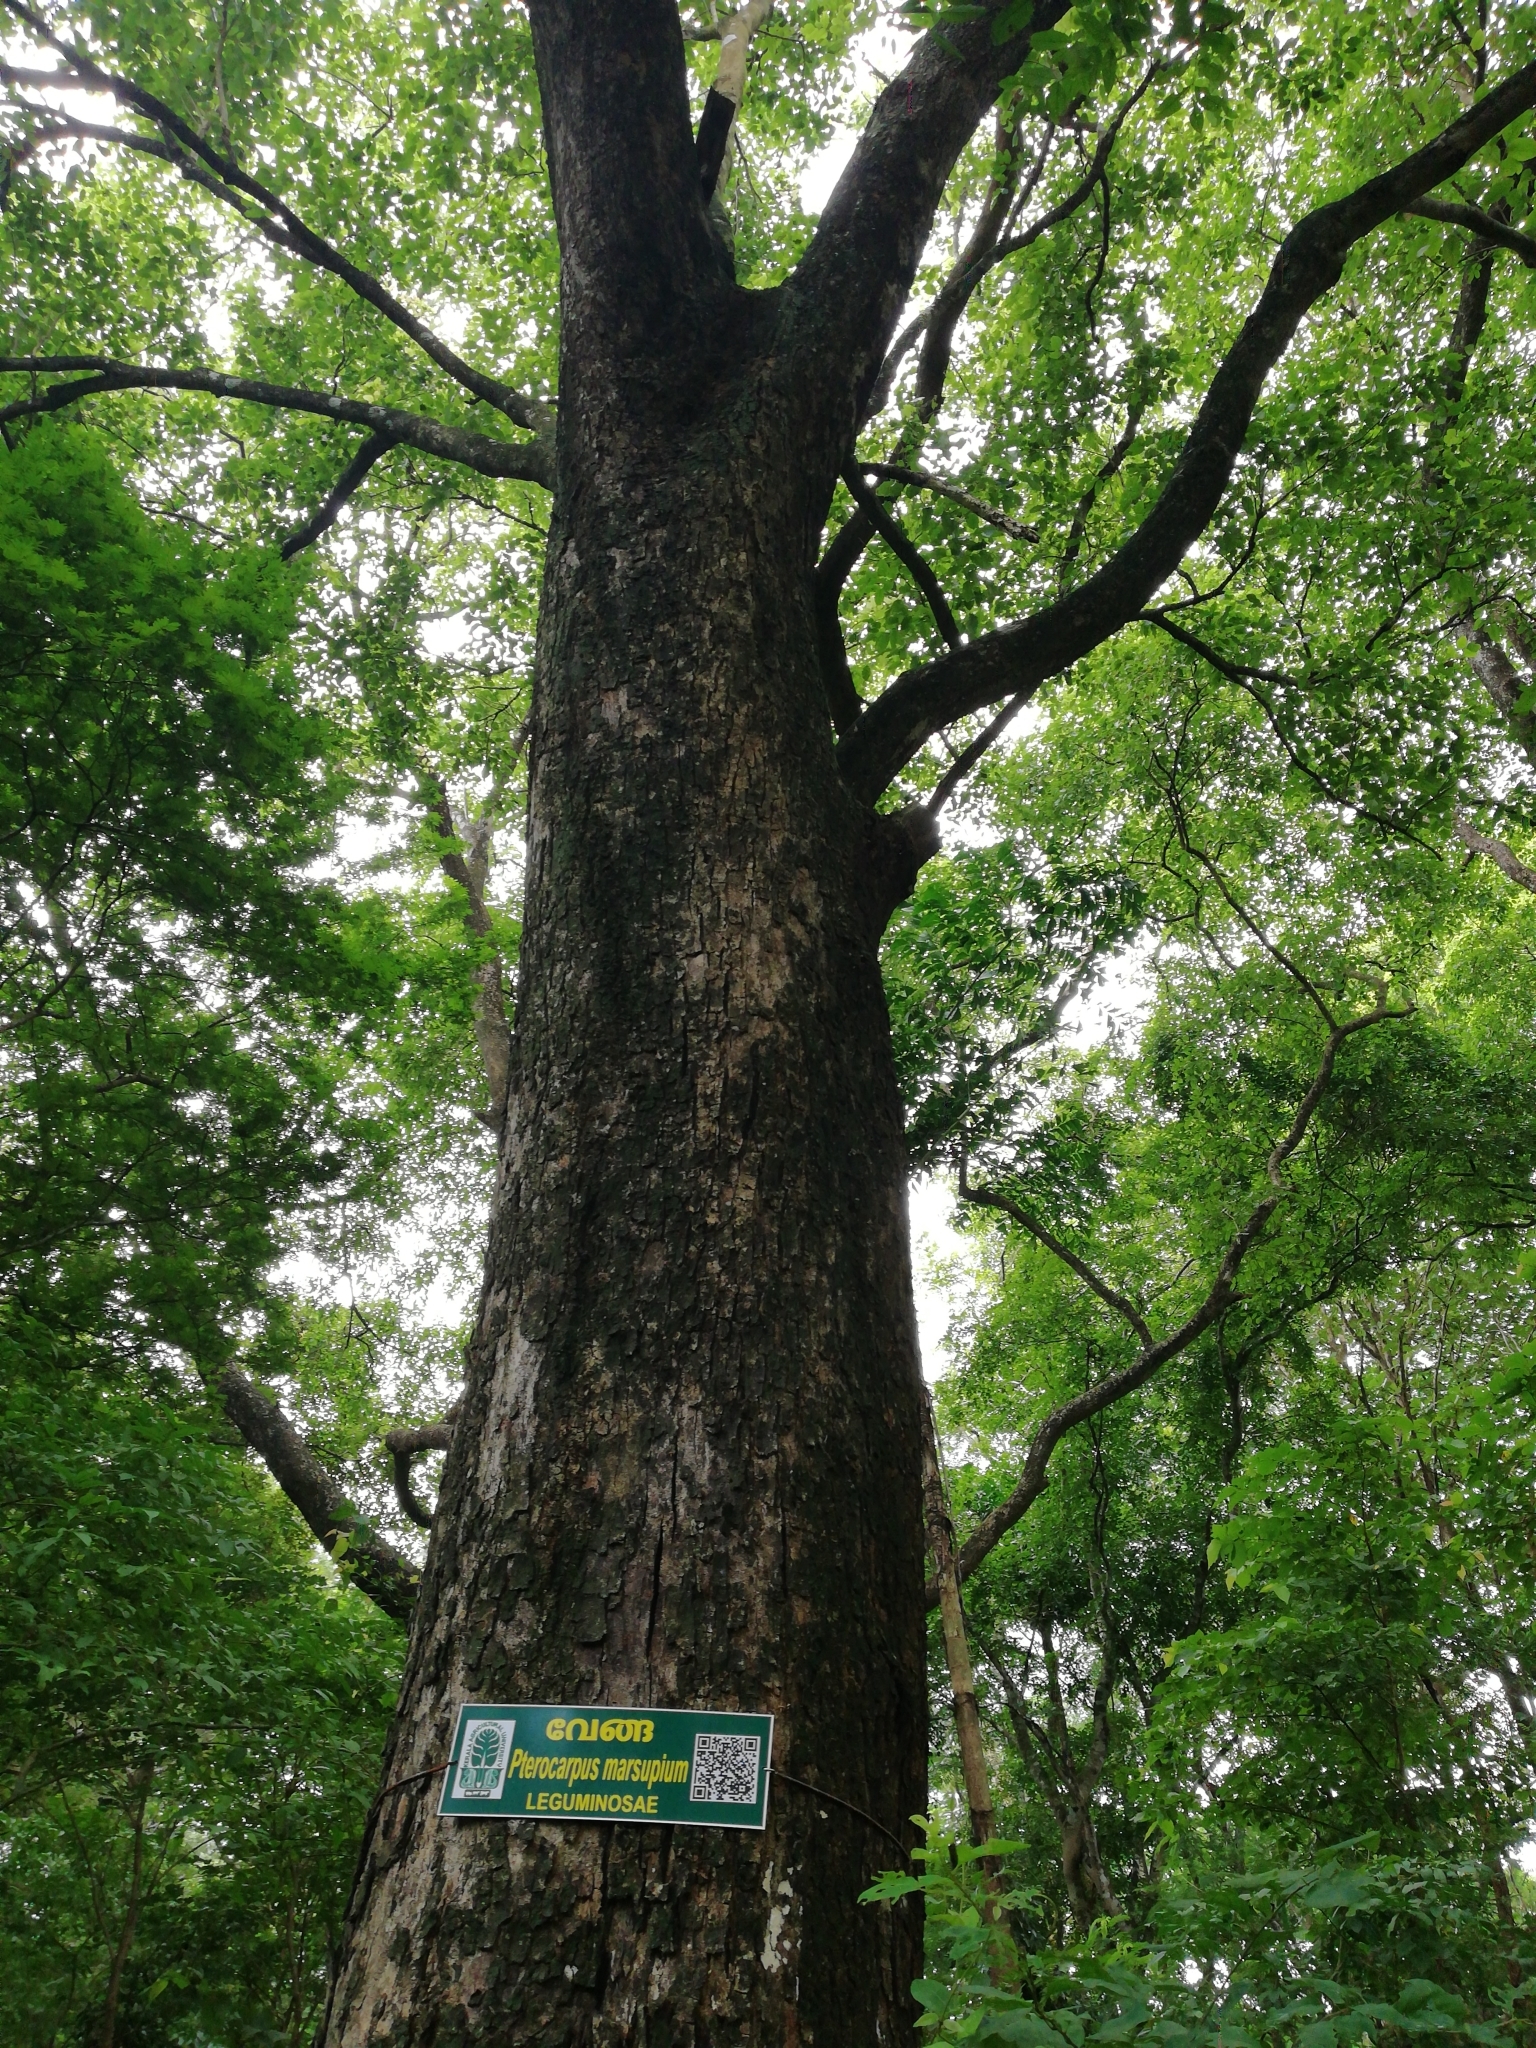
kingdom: Plantae
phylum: Tracheophyta
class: Magnoliopsida
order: Fabales
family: Fabaceae
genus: Pterocarpus
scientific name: Pterocarpus marsupium
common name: East indian/malabar kino
